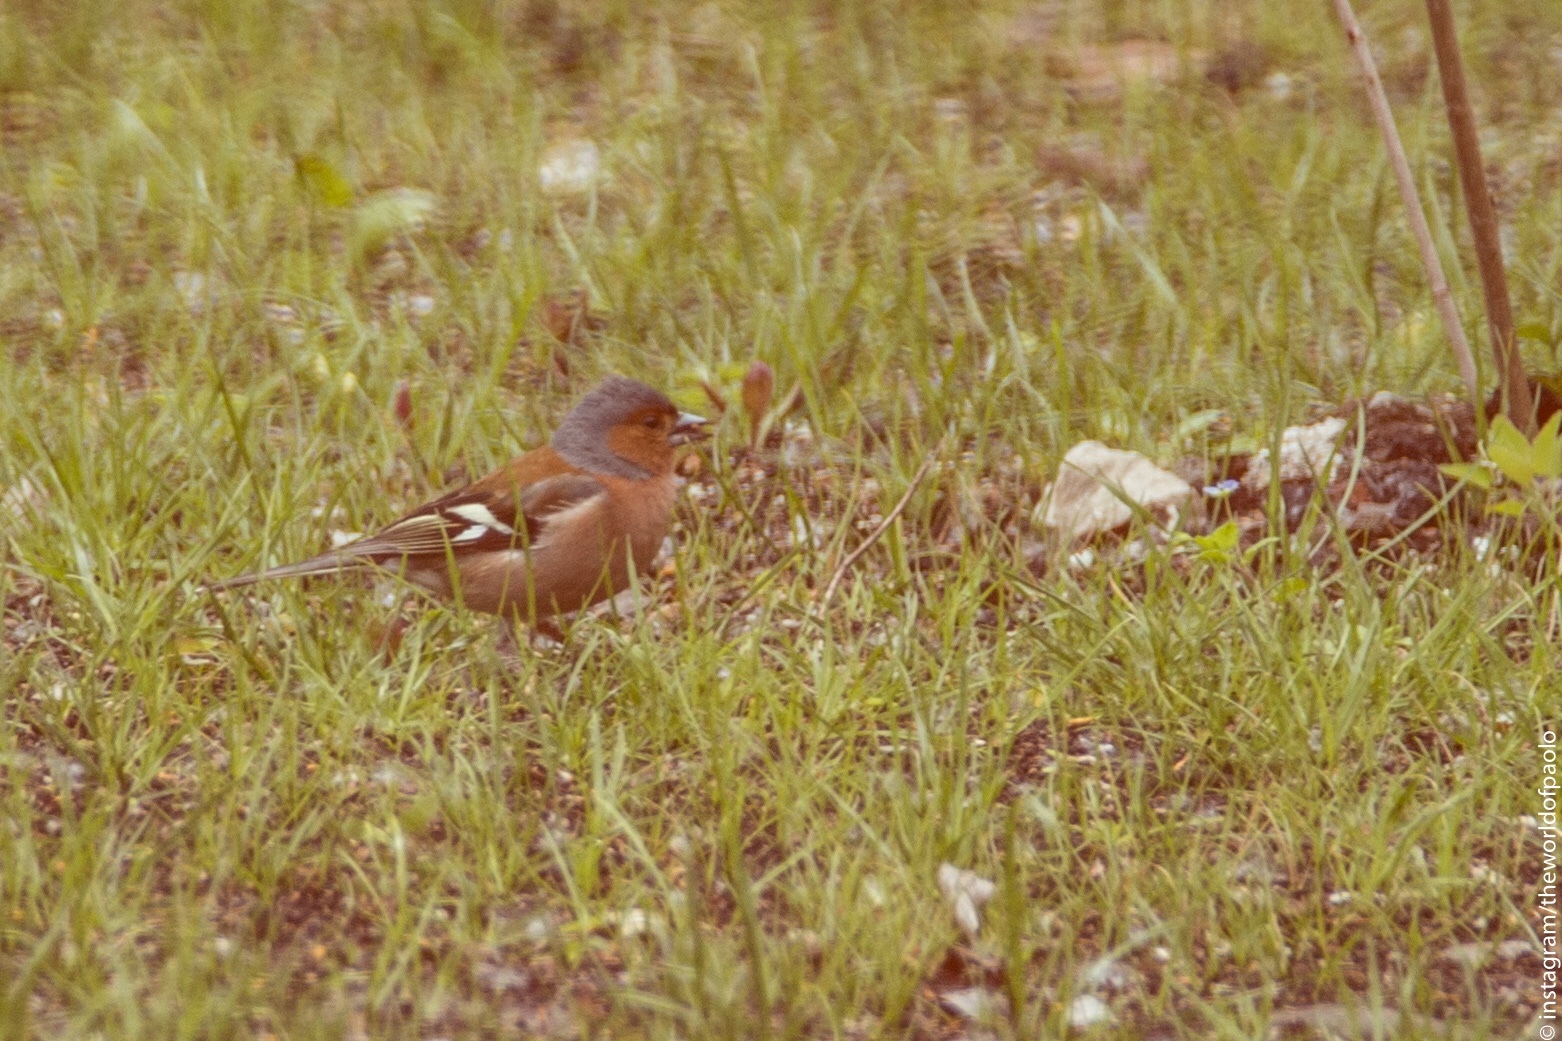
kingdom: Animalia
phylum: Chordata
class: Aves
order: Passeriformes
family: Fringillidae
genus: Fringilla
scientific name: Fringilla coelebs
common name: Common chaffinch
